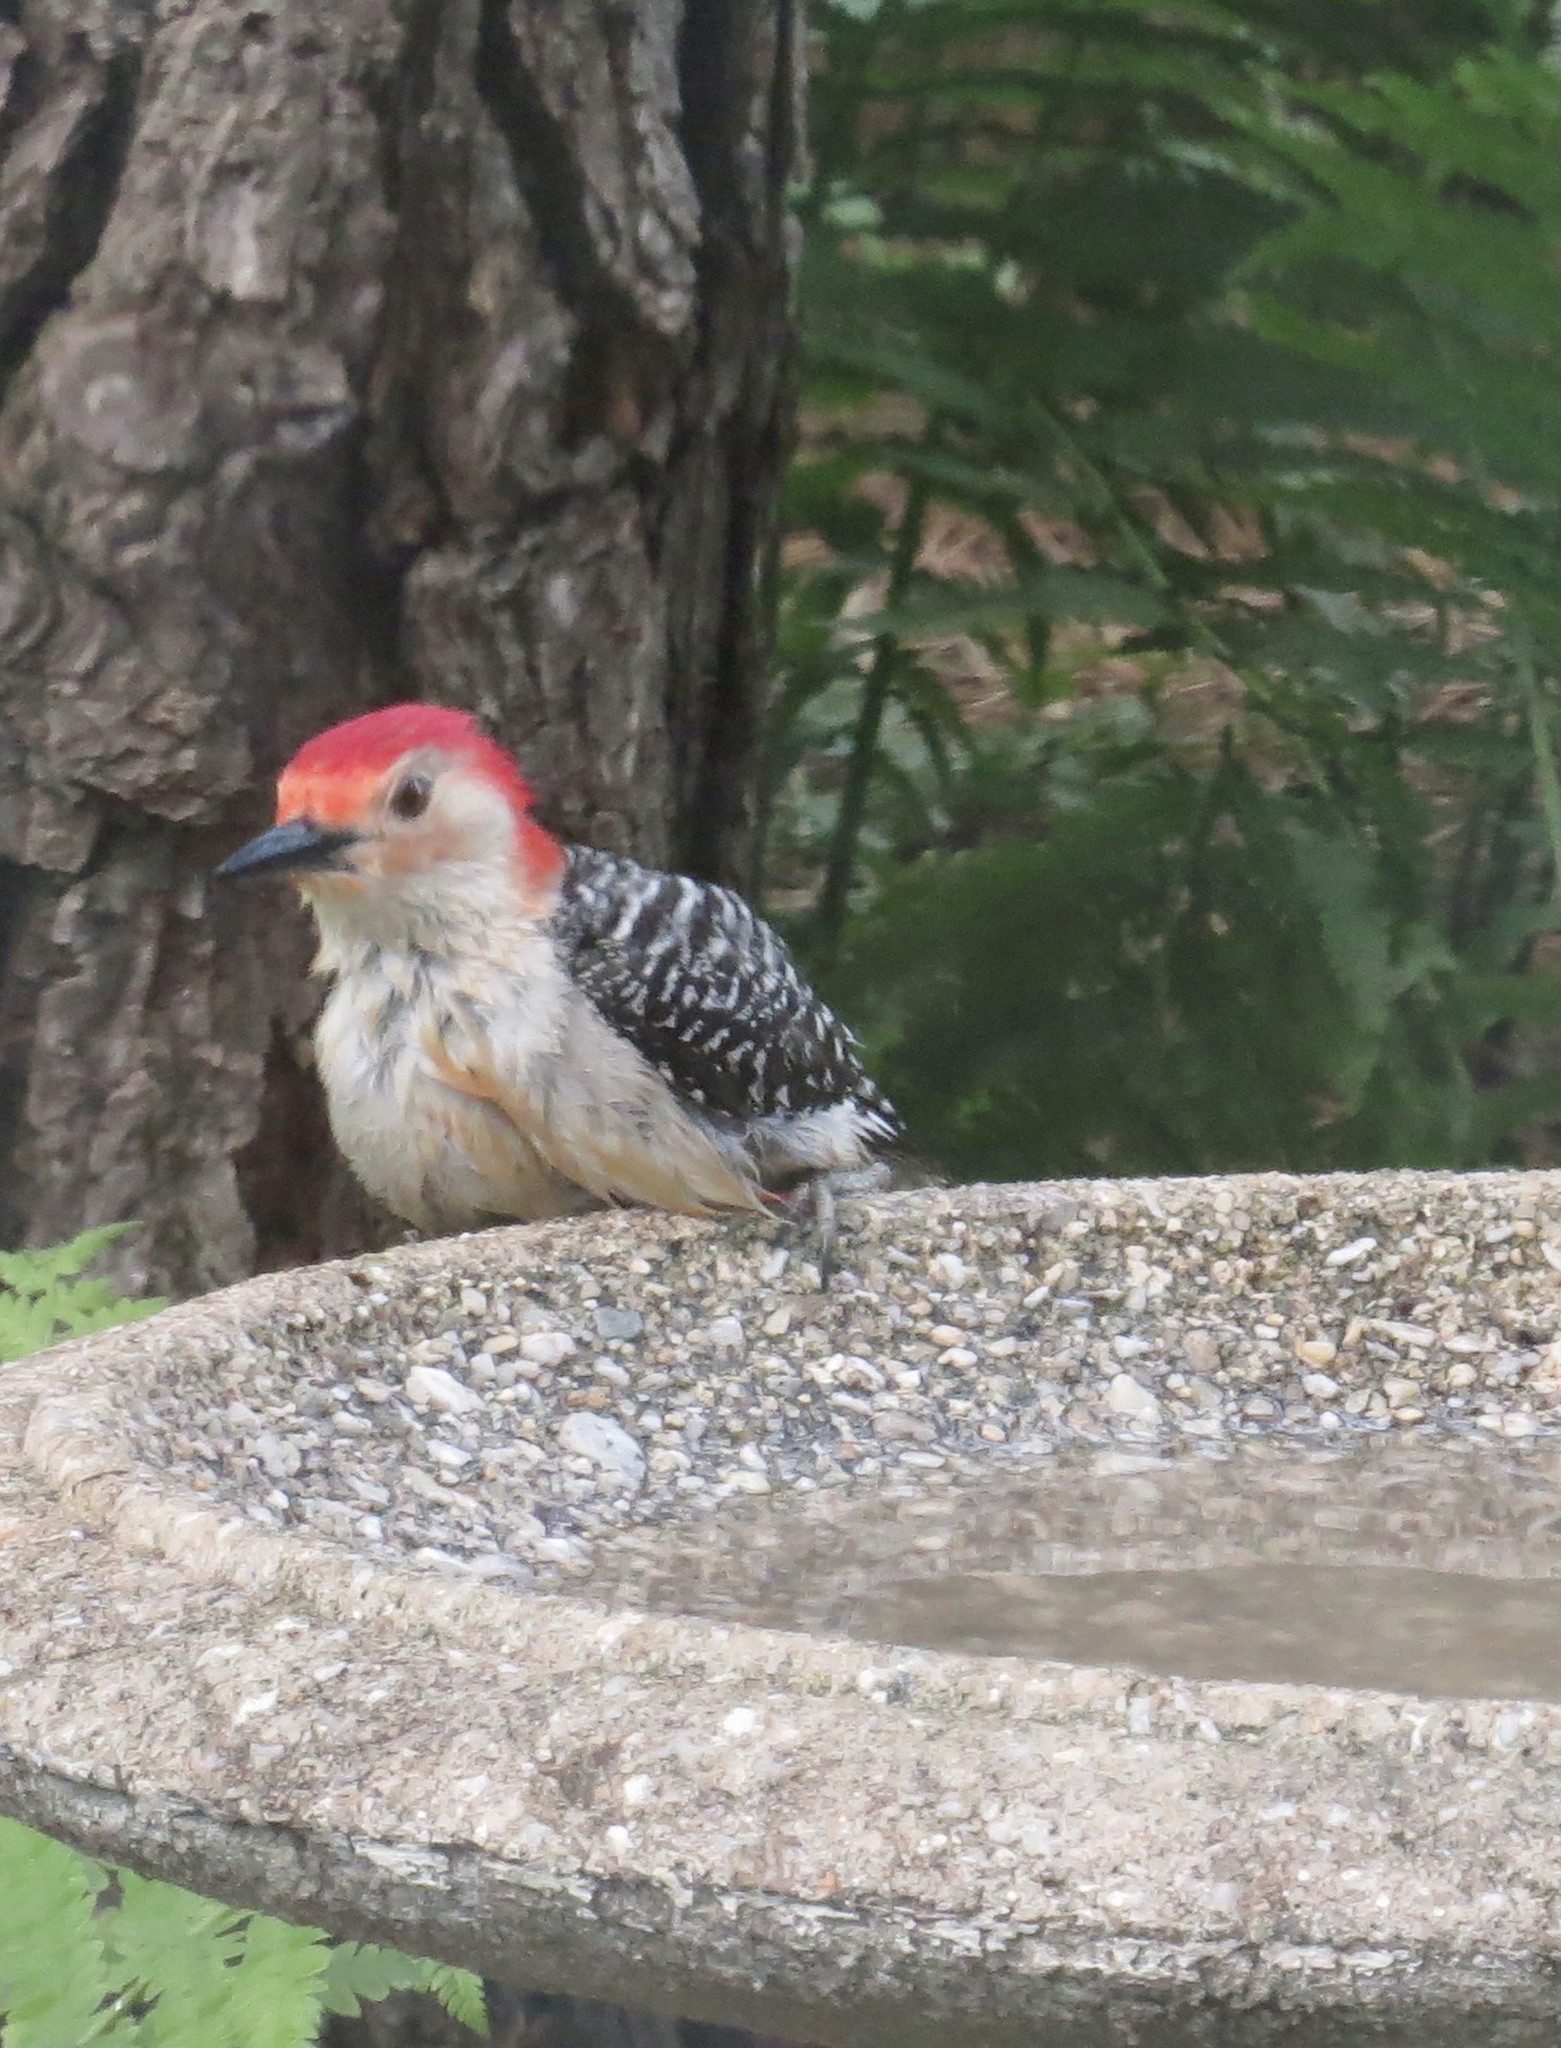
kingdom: Animalia
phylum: Chordata
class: Aves
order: Piciformes
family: Picidae
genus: Melanerpes
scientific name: Melanerpes carolinus
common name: Red-bellied woodpecker
